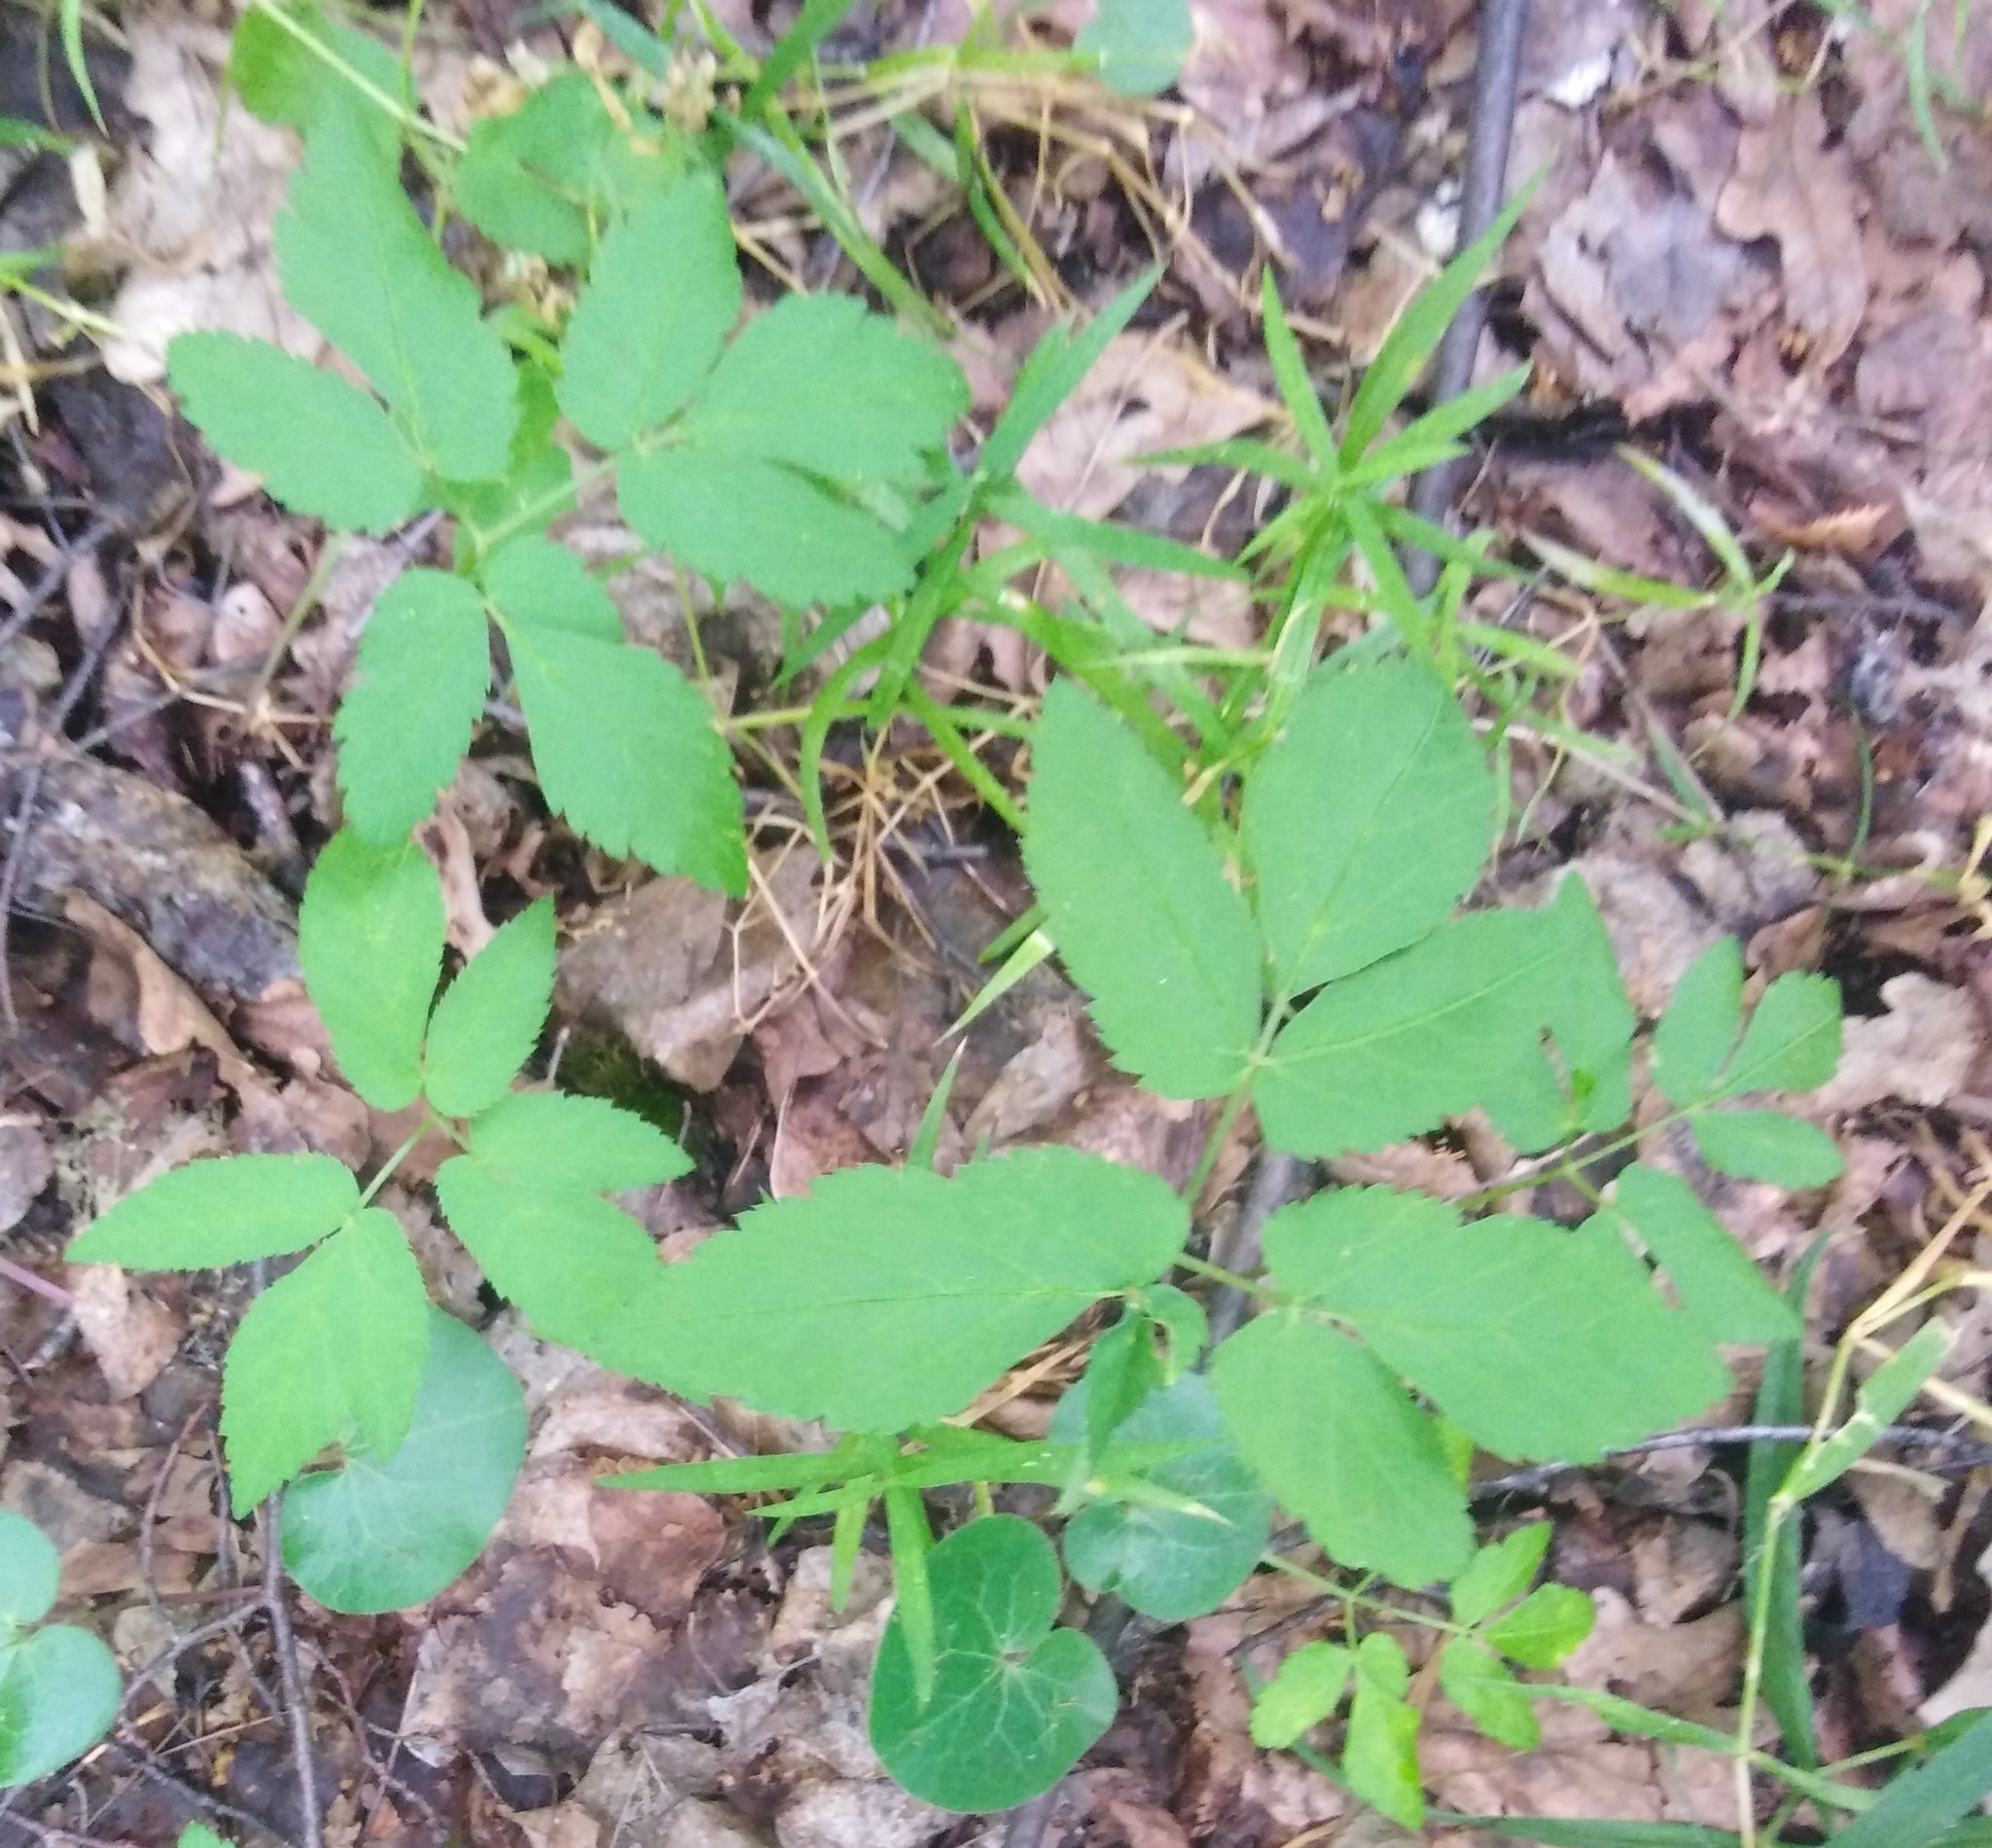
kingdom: Plantae
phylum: Tracheophyta
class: Magnoliopsida
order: Apiales
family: Apiaceae
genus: Aegopodium
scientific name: Aegopodium podagraria
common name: Ground-elder
